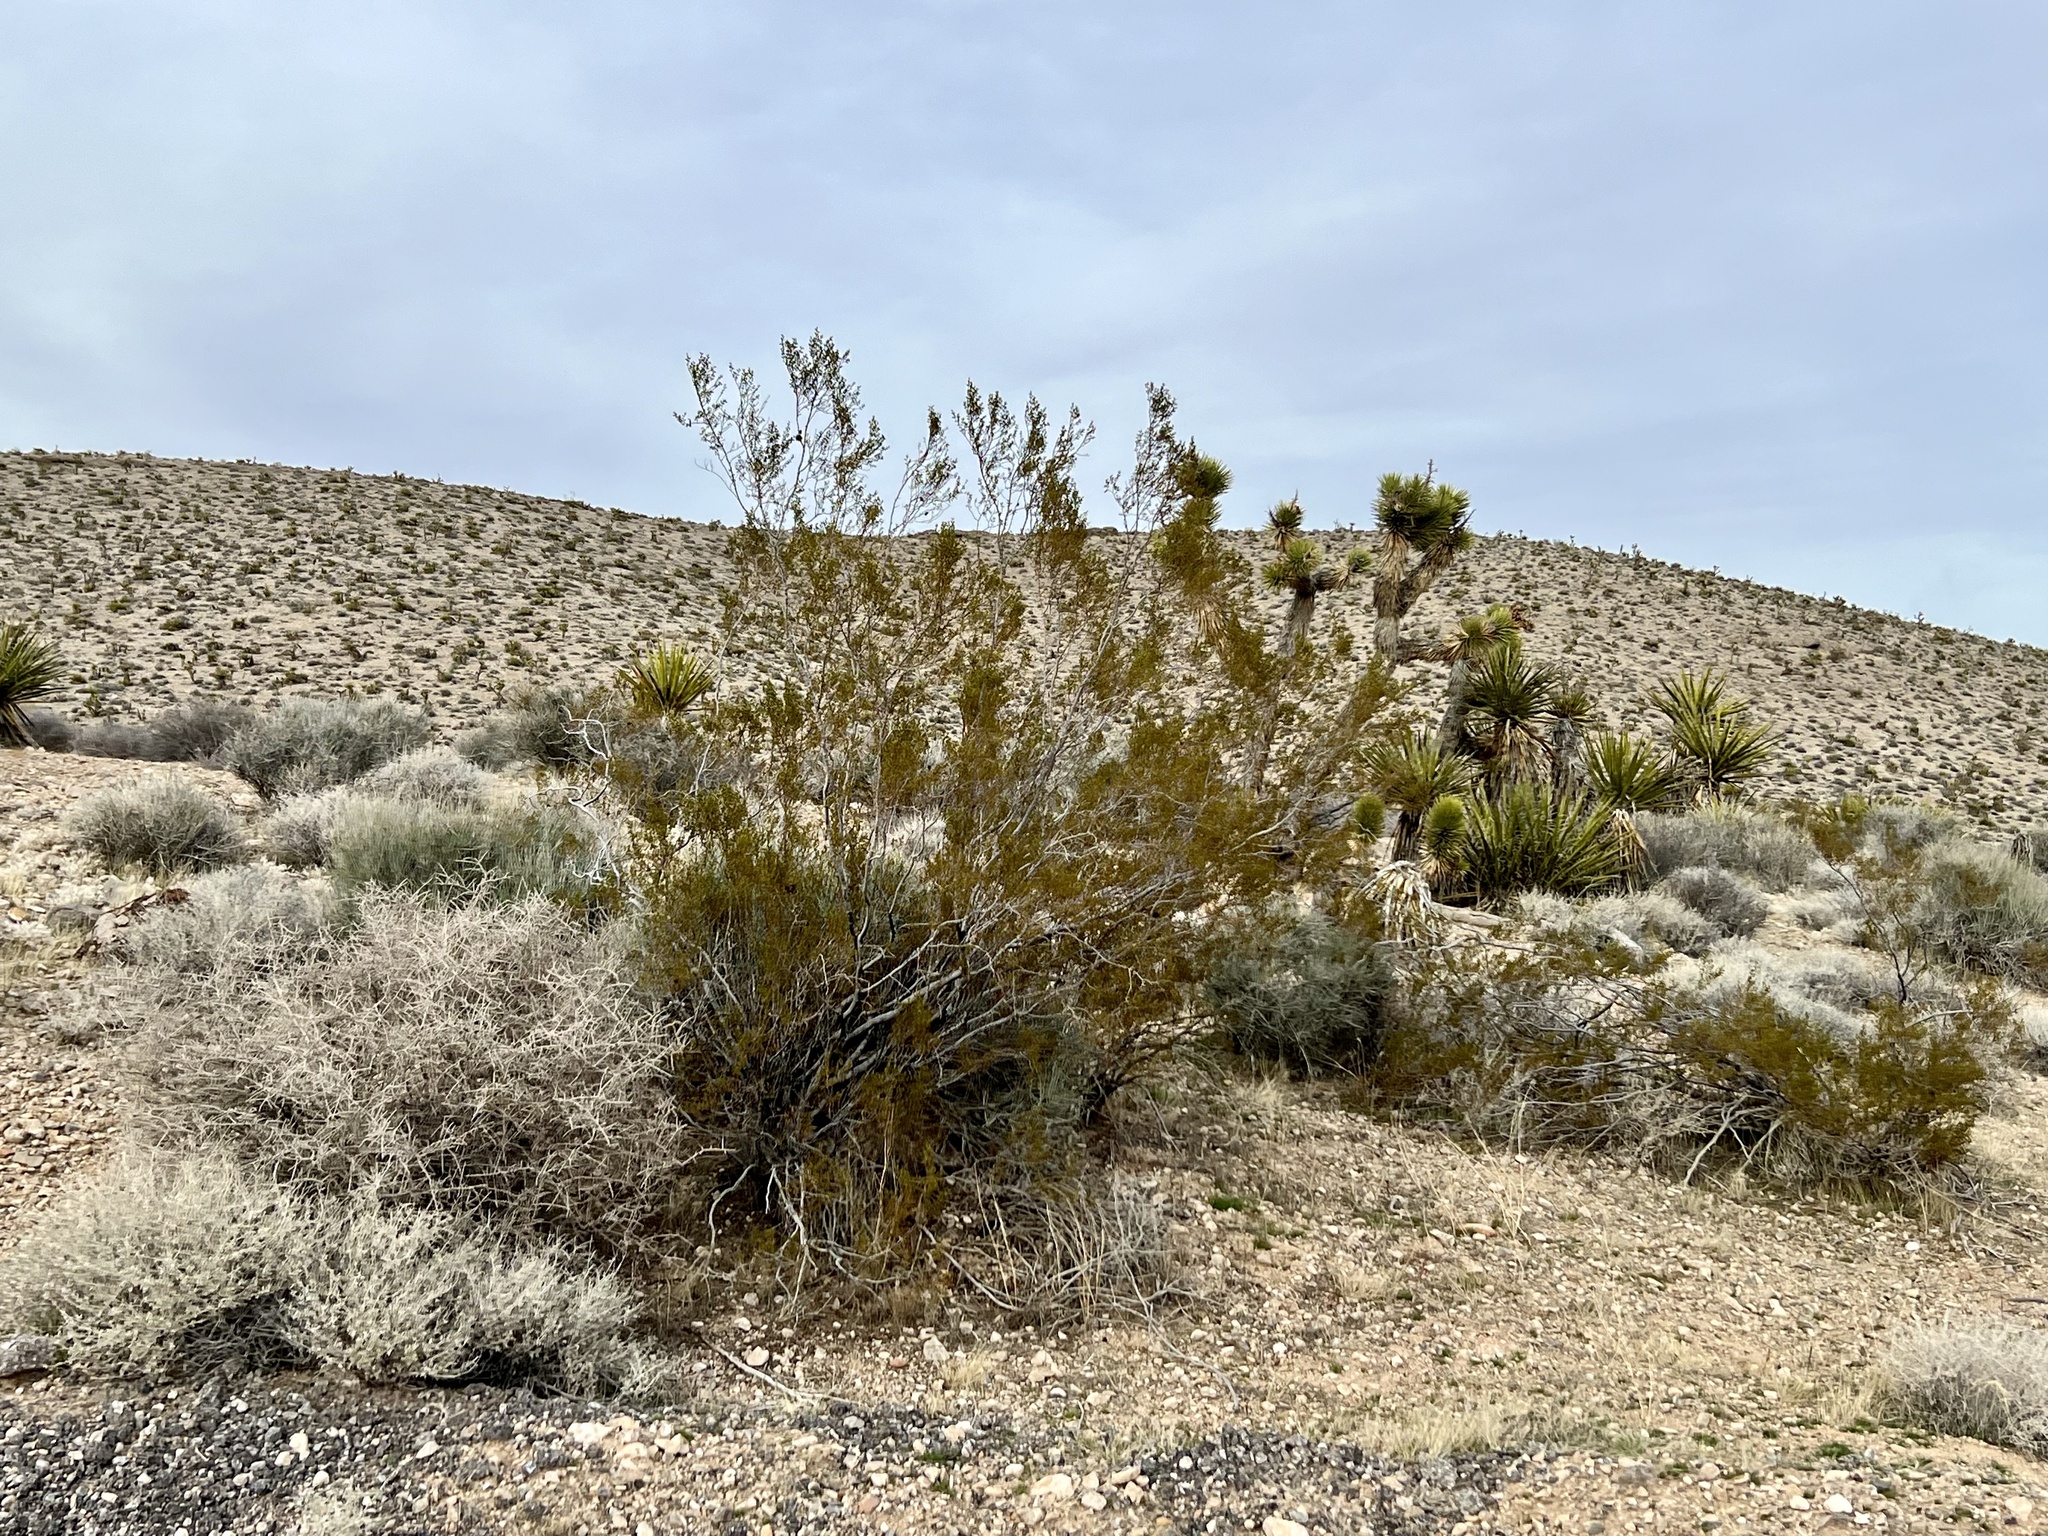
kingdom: Plantae
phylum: Tracheophyta
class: Magnoliopsida
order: Zygophyllales
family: Zygophyllaceae
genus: Larrea
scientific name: Larrea tridentata
